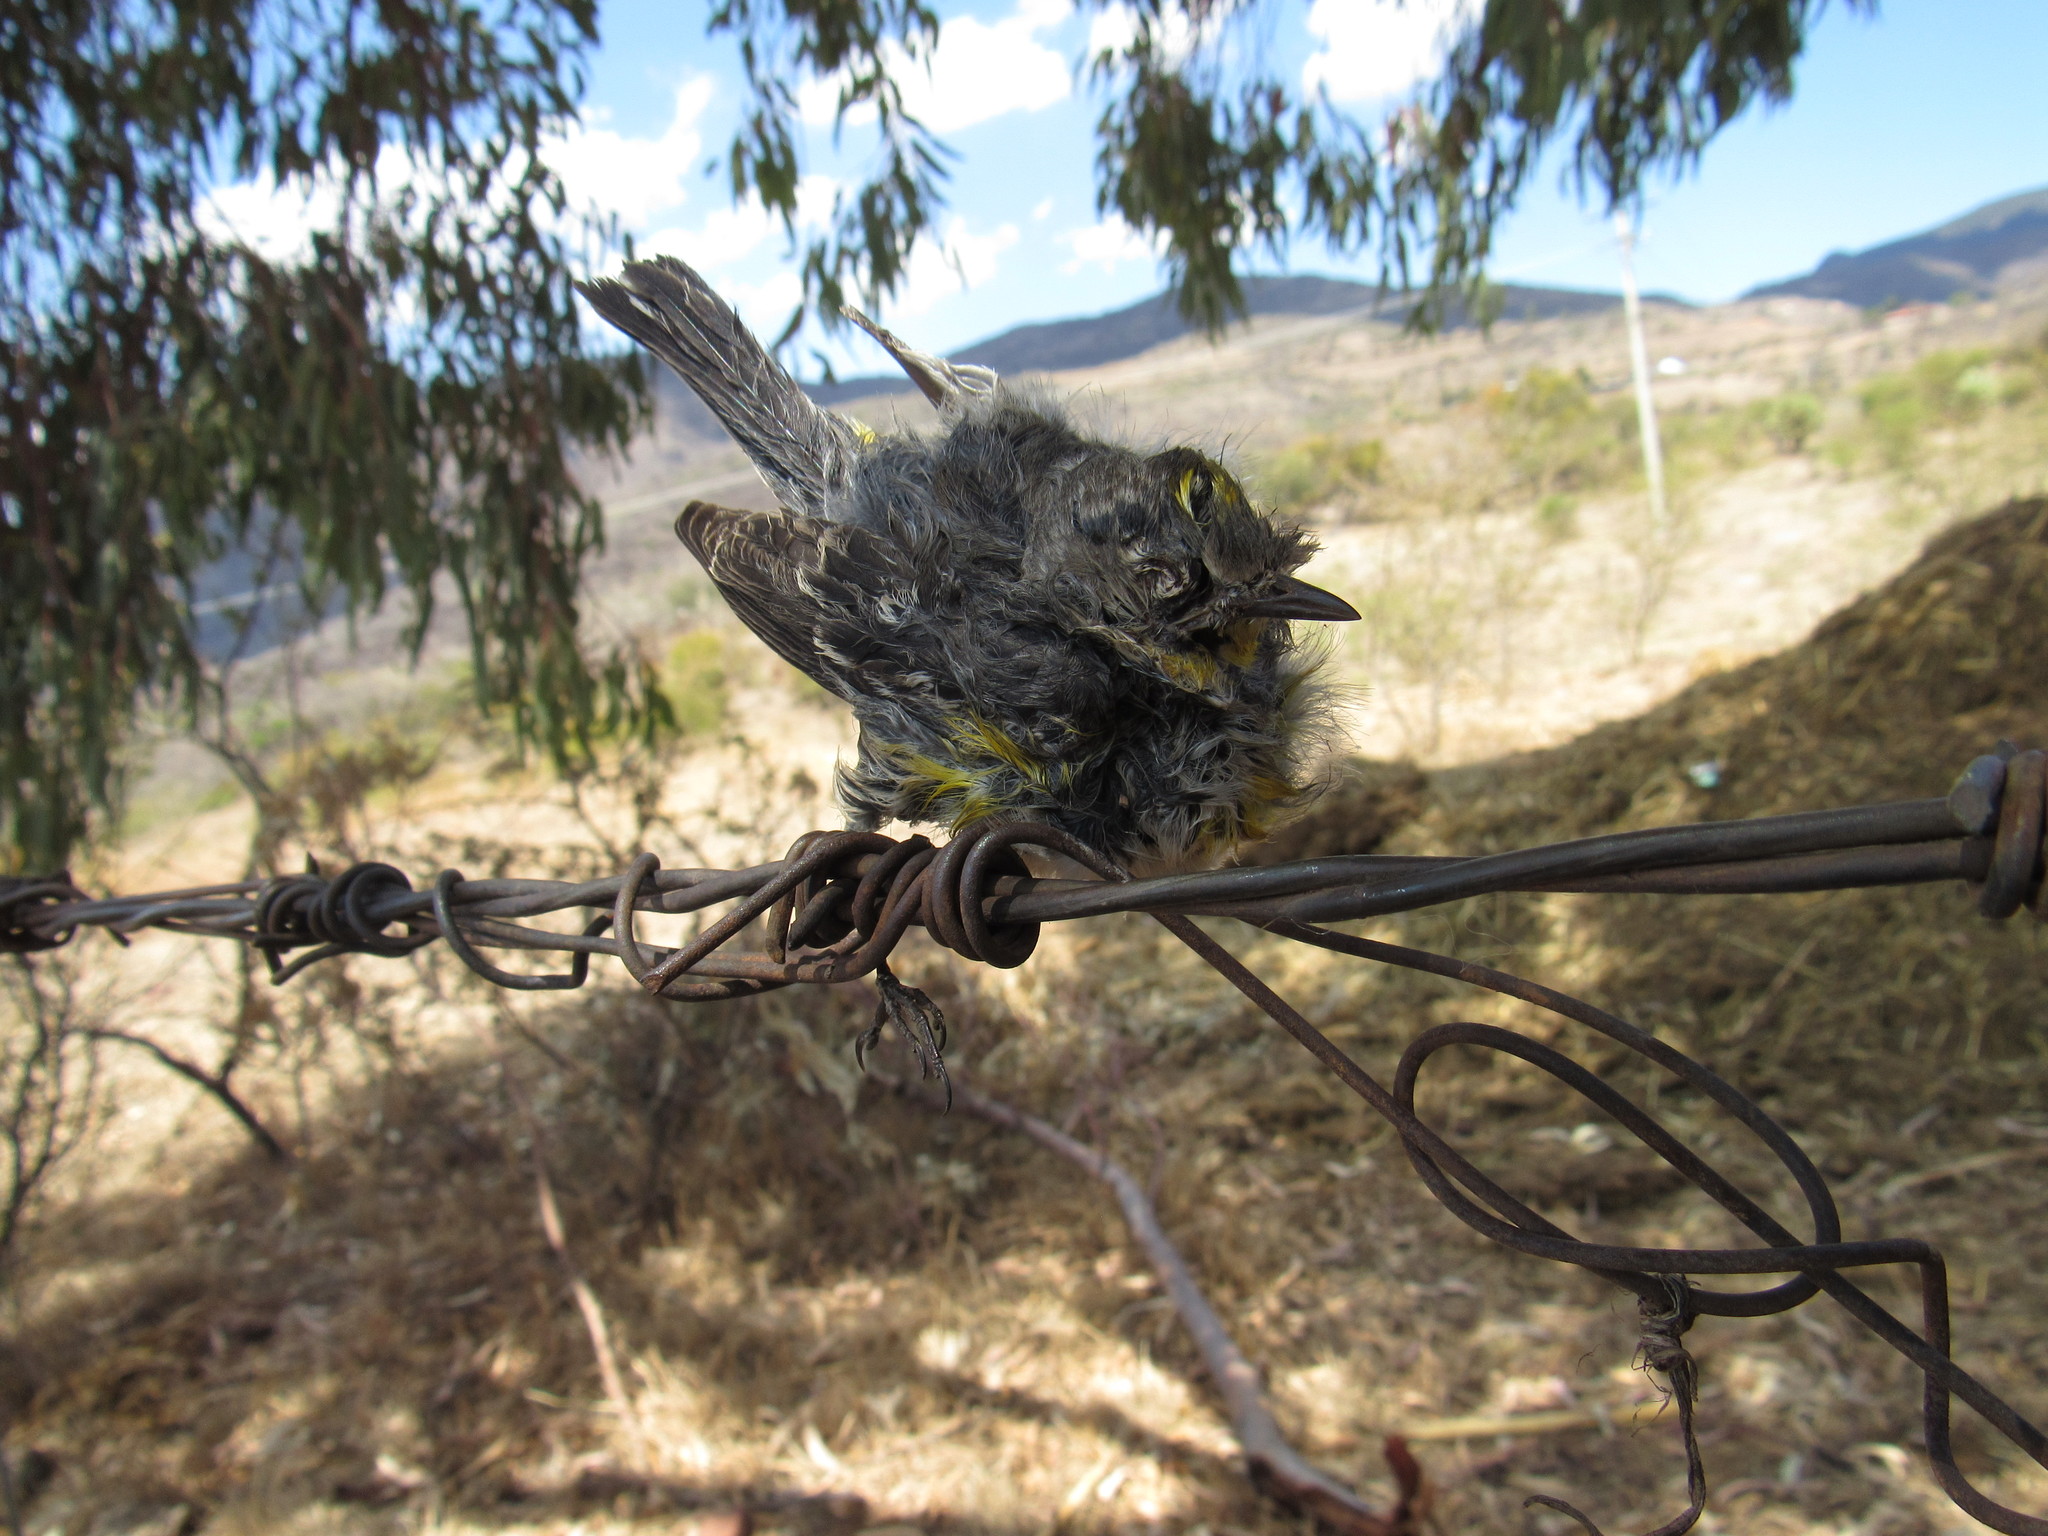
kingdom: Animalia
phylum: Chordata
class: Aves
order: Passeriformes
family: Parulidae
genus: Setophaga
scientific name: Setophaga auduboni
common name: Audubon's warbler
